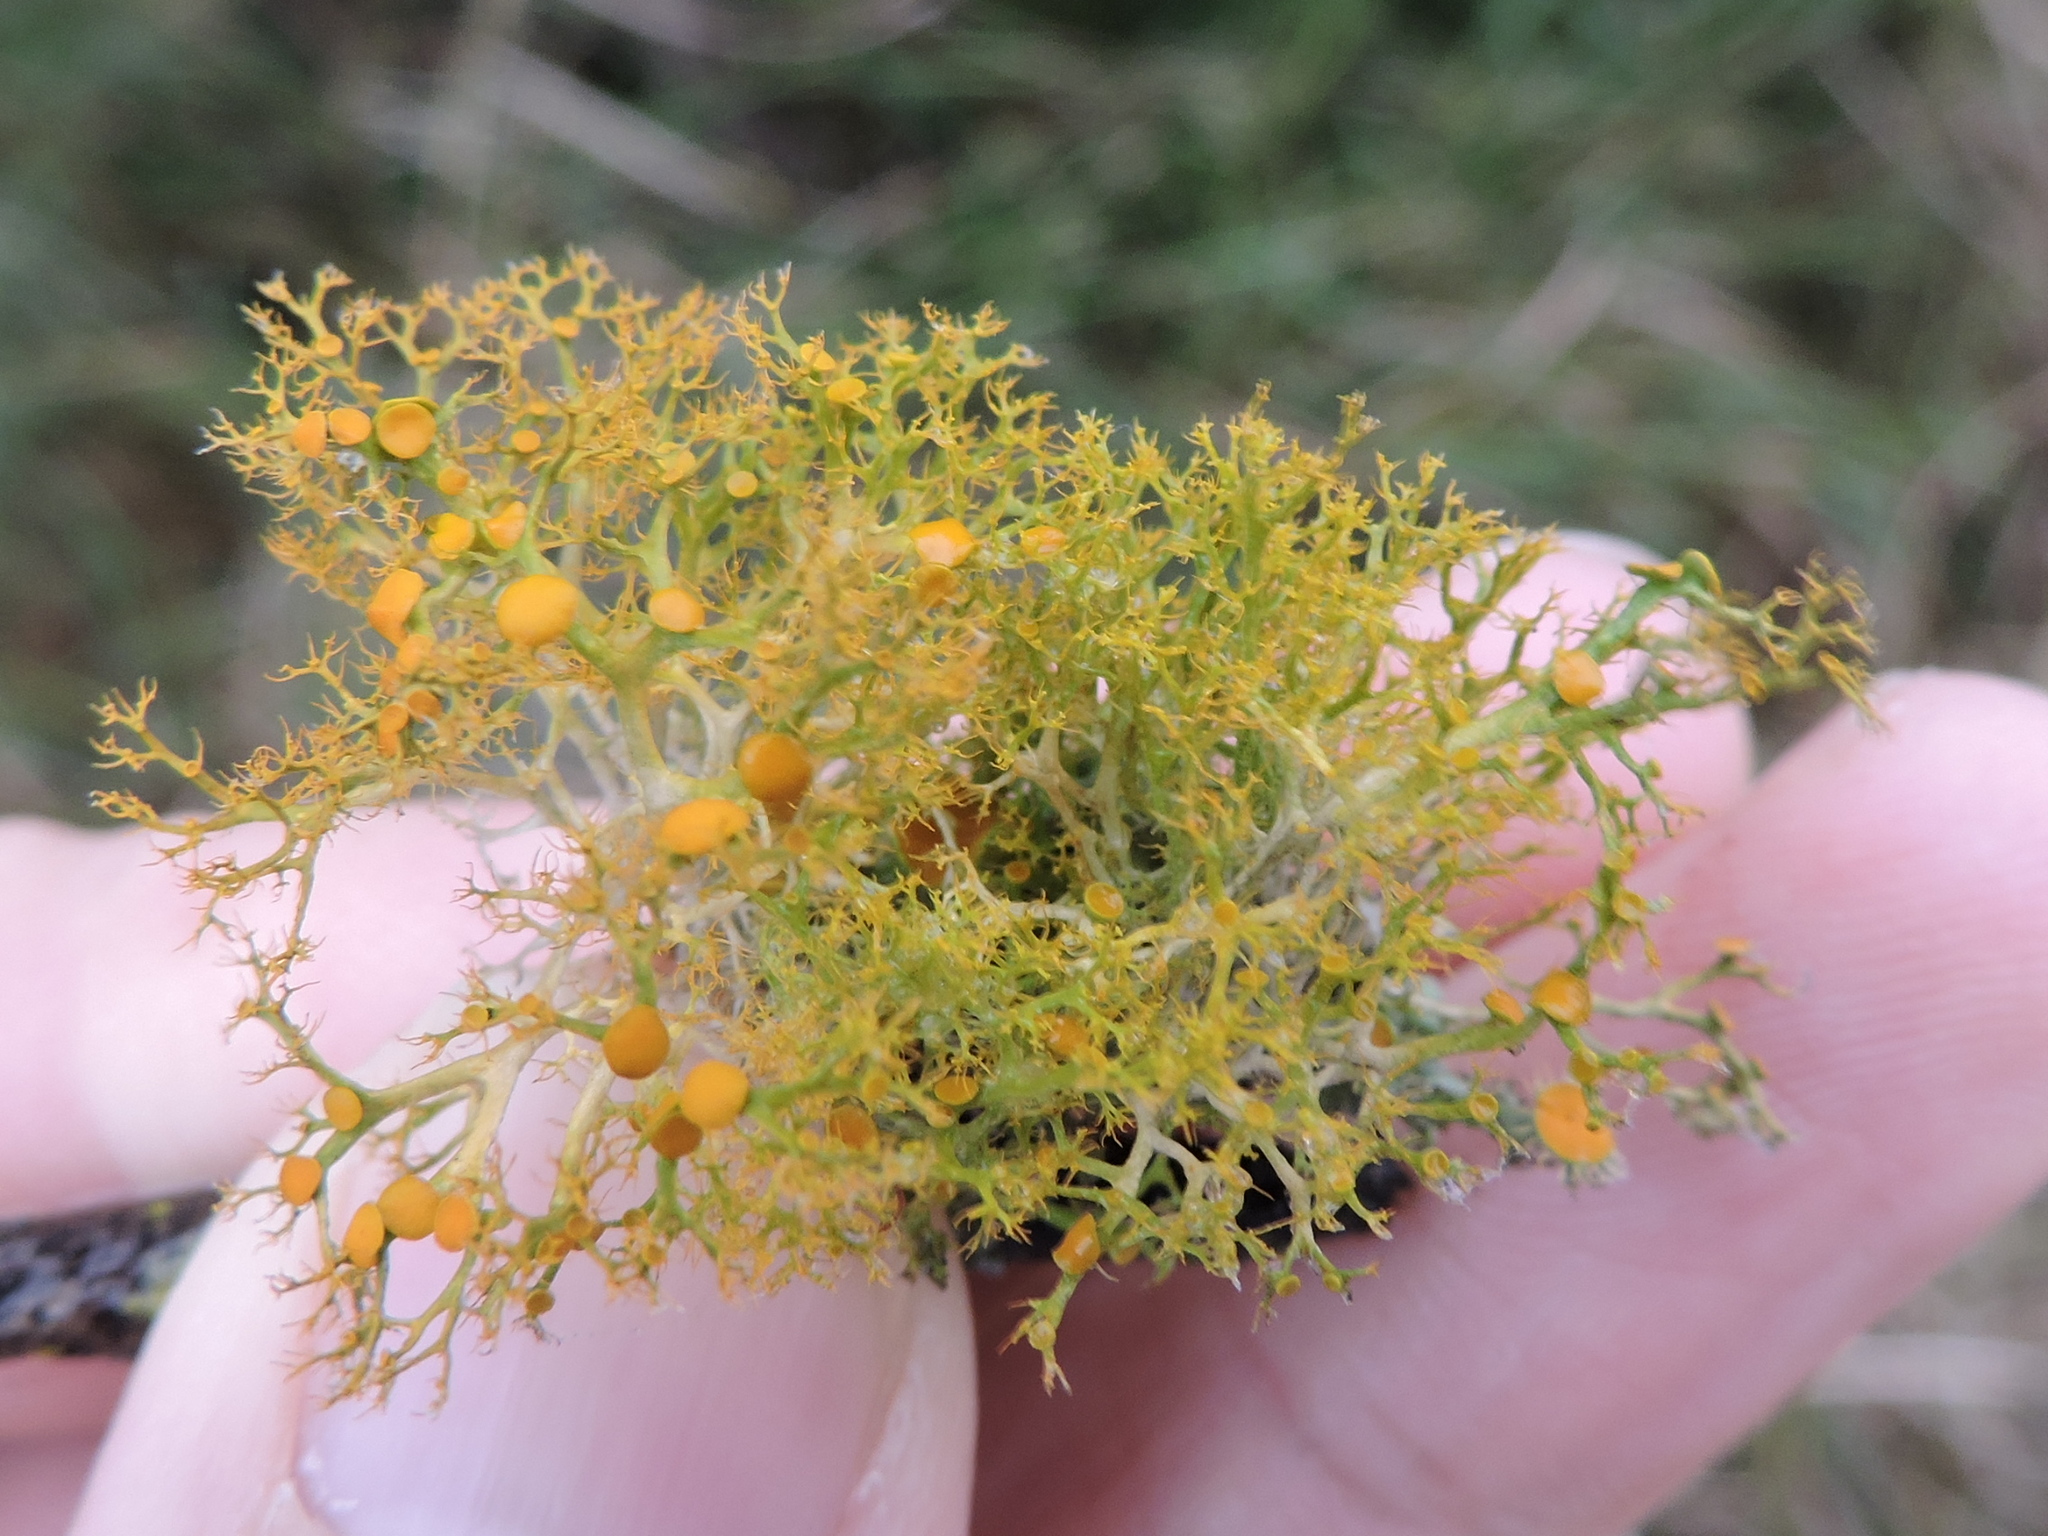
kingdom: Fungi
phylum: Ascomycota
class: Lecanoromycetes
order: Teloschistales
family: Teloschistaceae
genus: Teloschistes
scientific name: Teloschistes exilis
